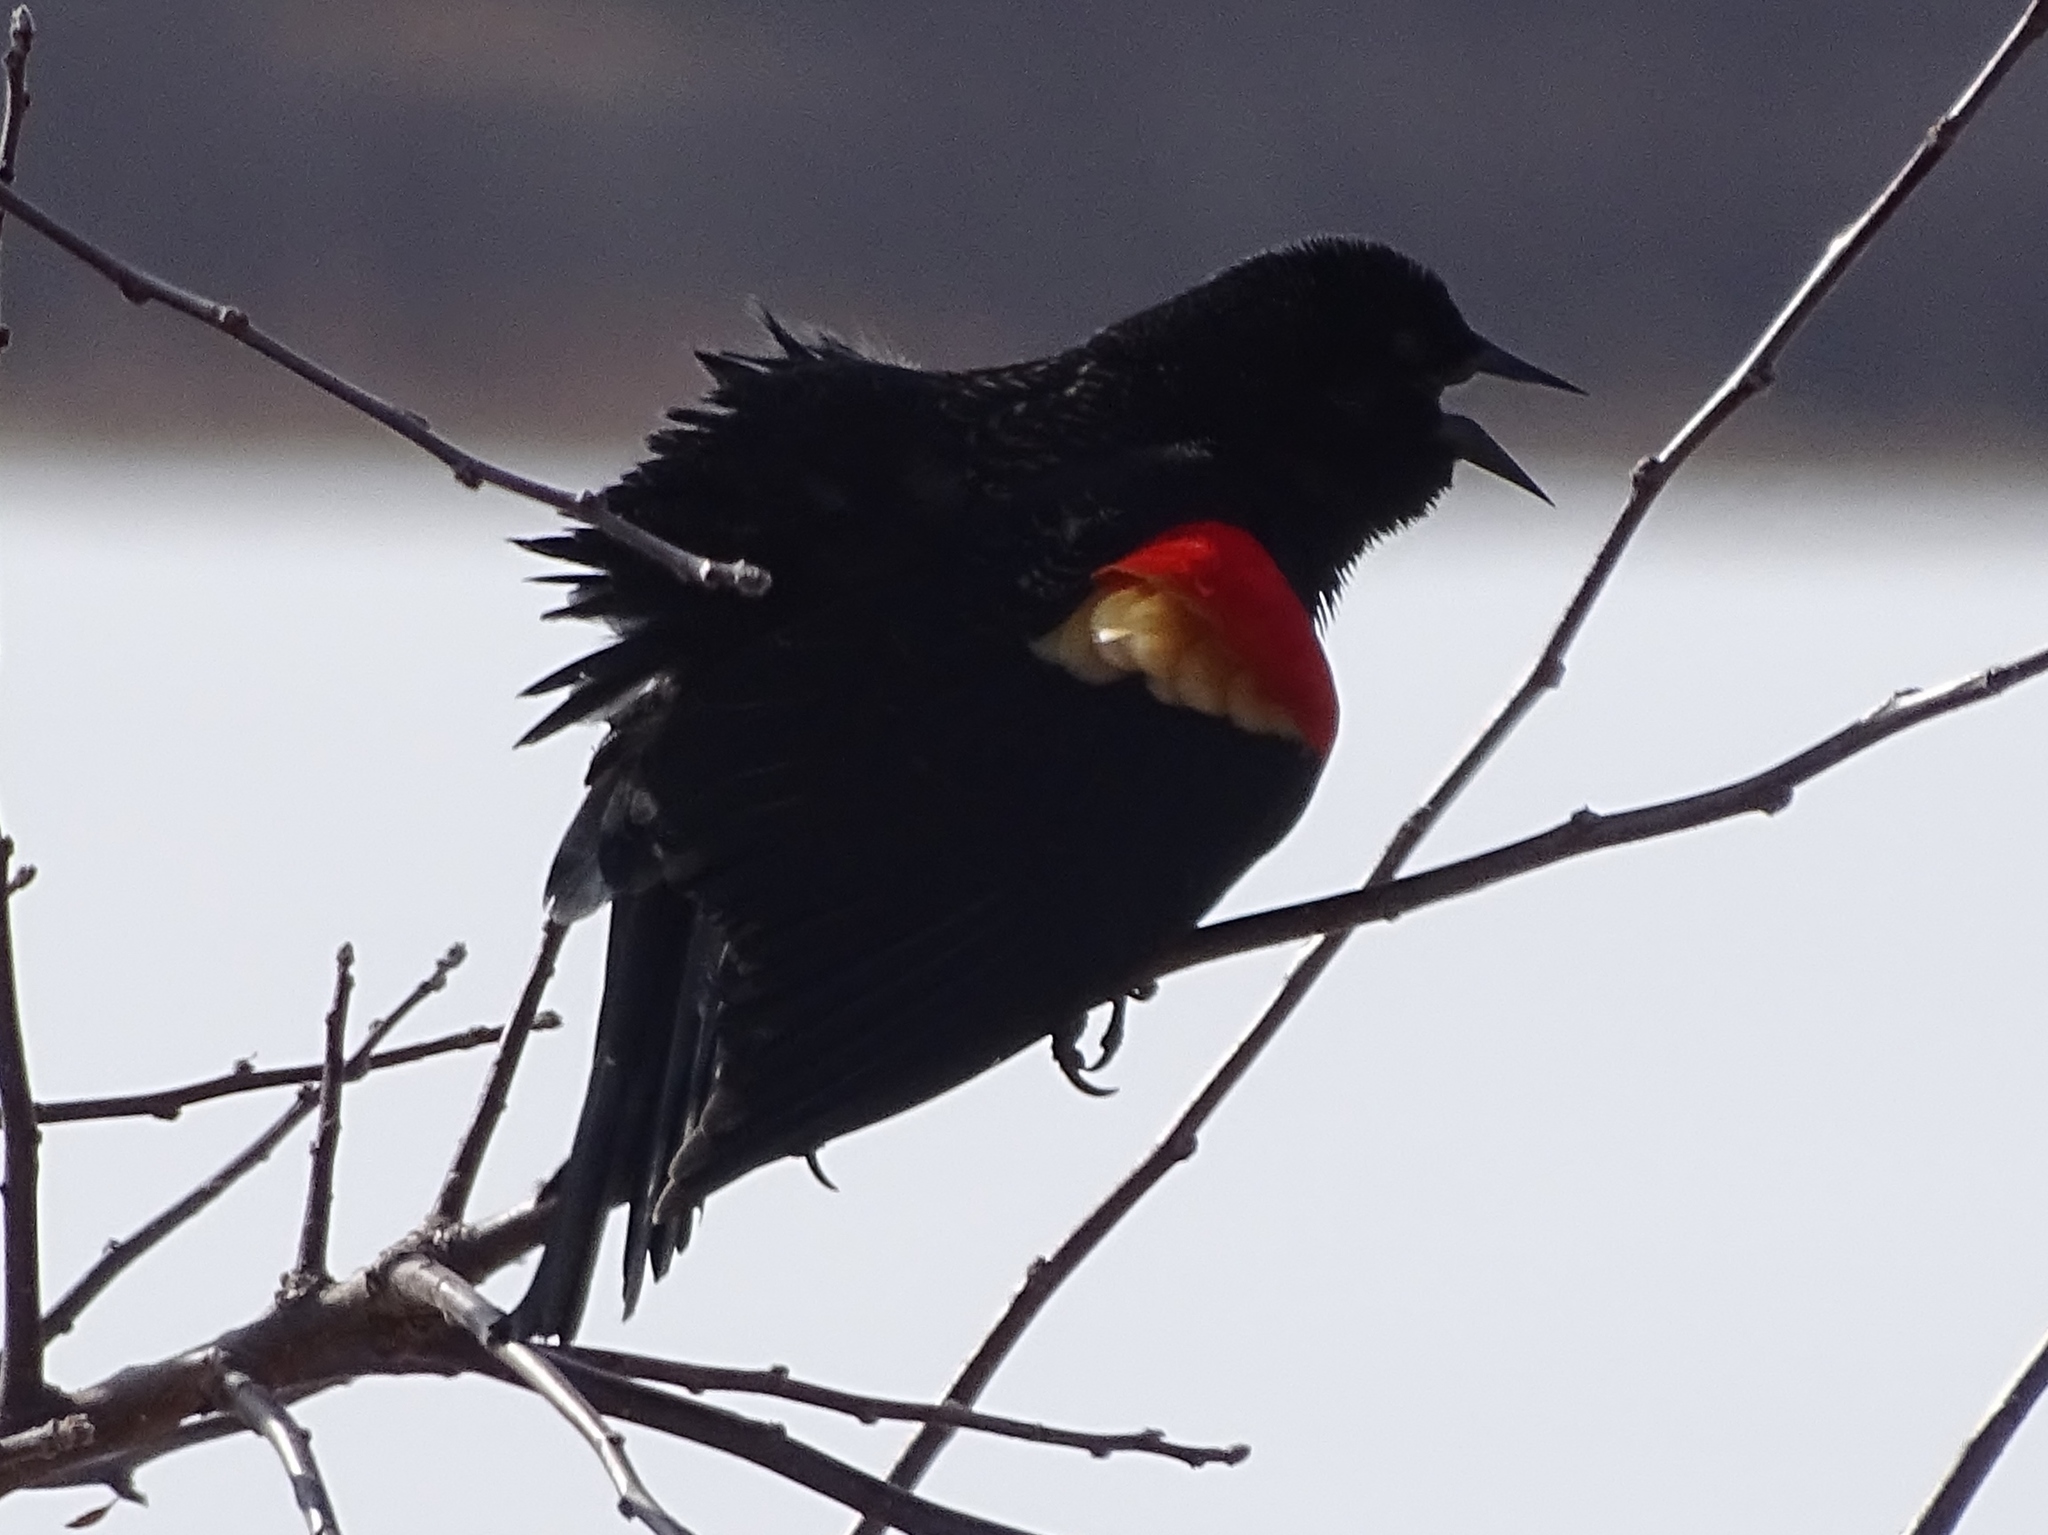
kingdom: Animalia
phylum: Chordata
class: Aves
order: Passeriformes
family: Icteridae
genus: Agelaius
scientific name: Agelaius phoeniceus
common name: Red-winged blackbird
